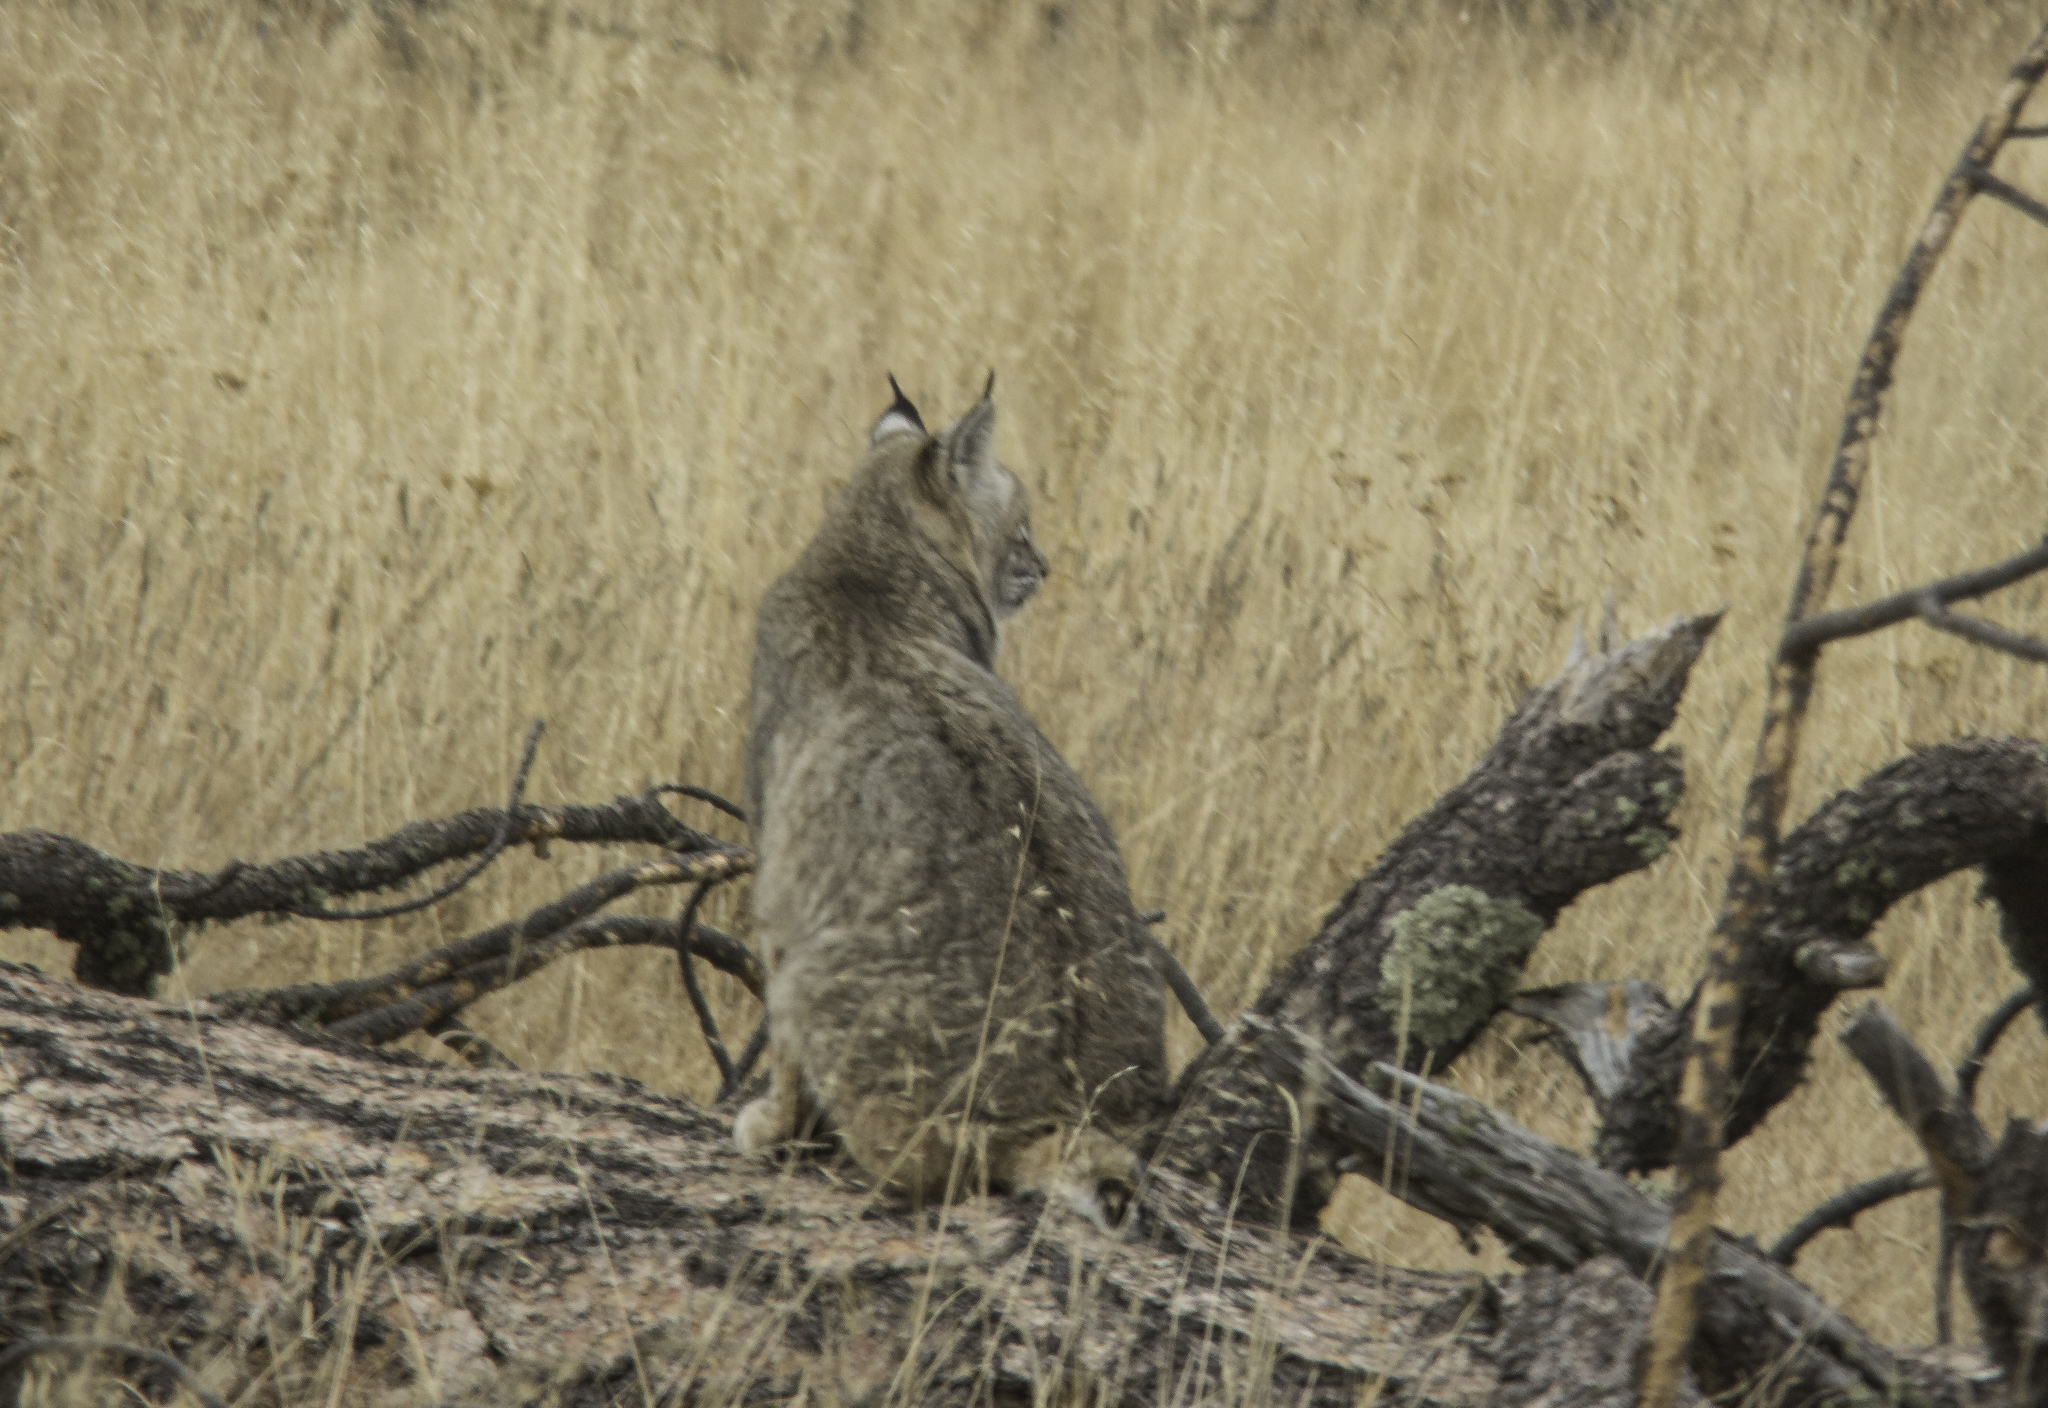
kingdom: Animalia
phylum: Chordata
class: Mammalia
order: Carnivora
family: Felidae
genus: Lynx
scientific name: Lynx rufus
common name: Bobcat
